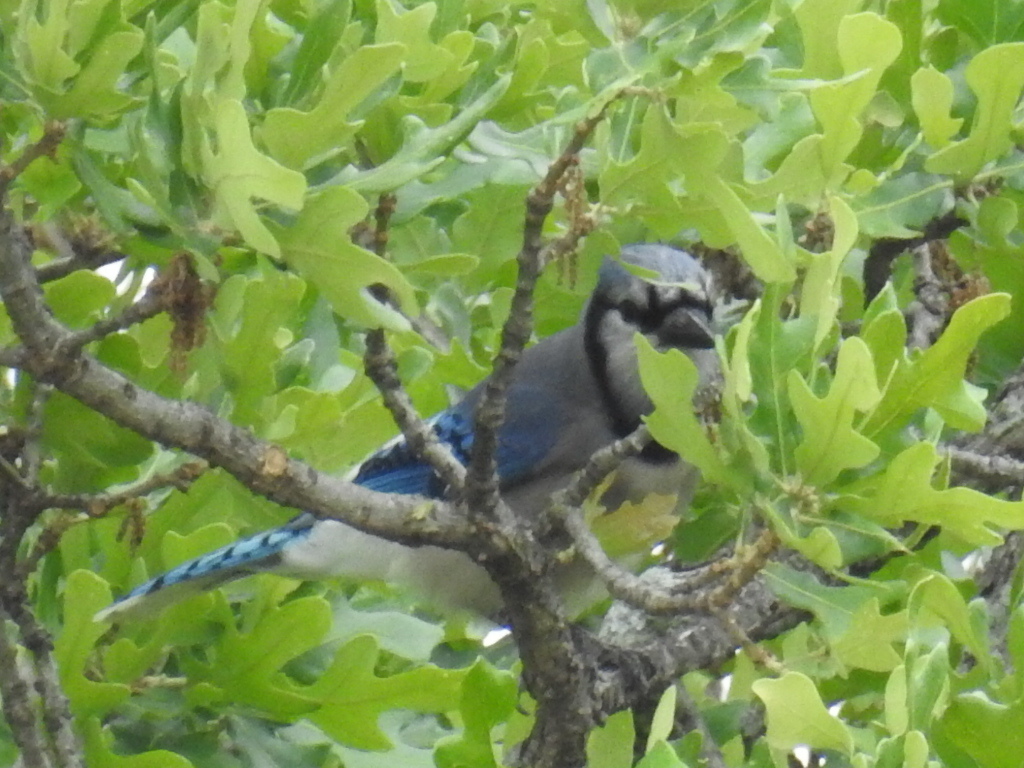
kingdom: Animalia
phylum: Chordata
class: Aves
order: Passeriformes
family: Corvidae
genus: Cyanocitta
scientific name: Cyanocitta cristata
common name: Blue jay
